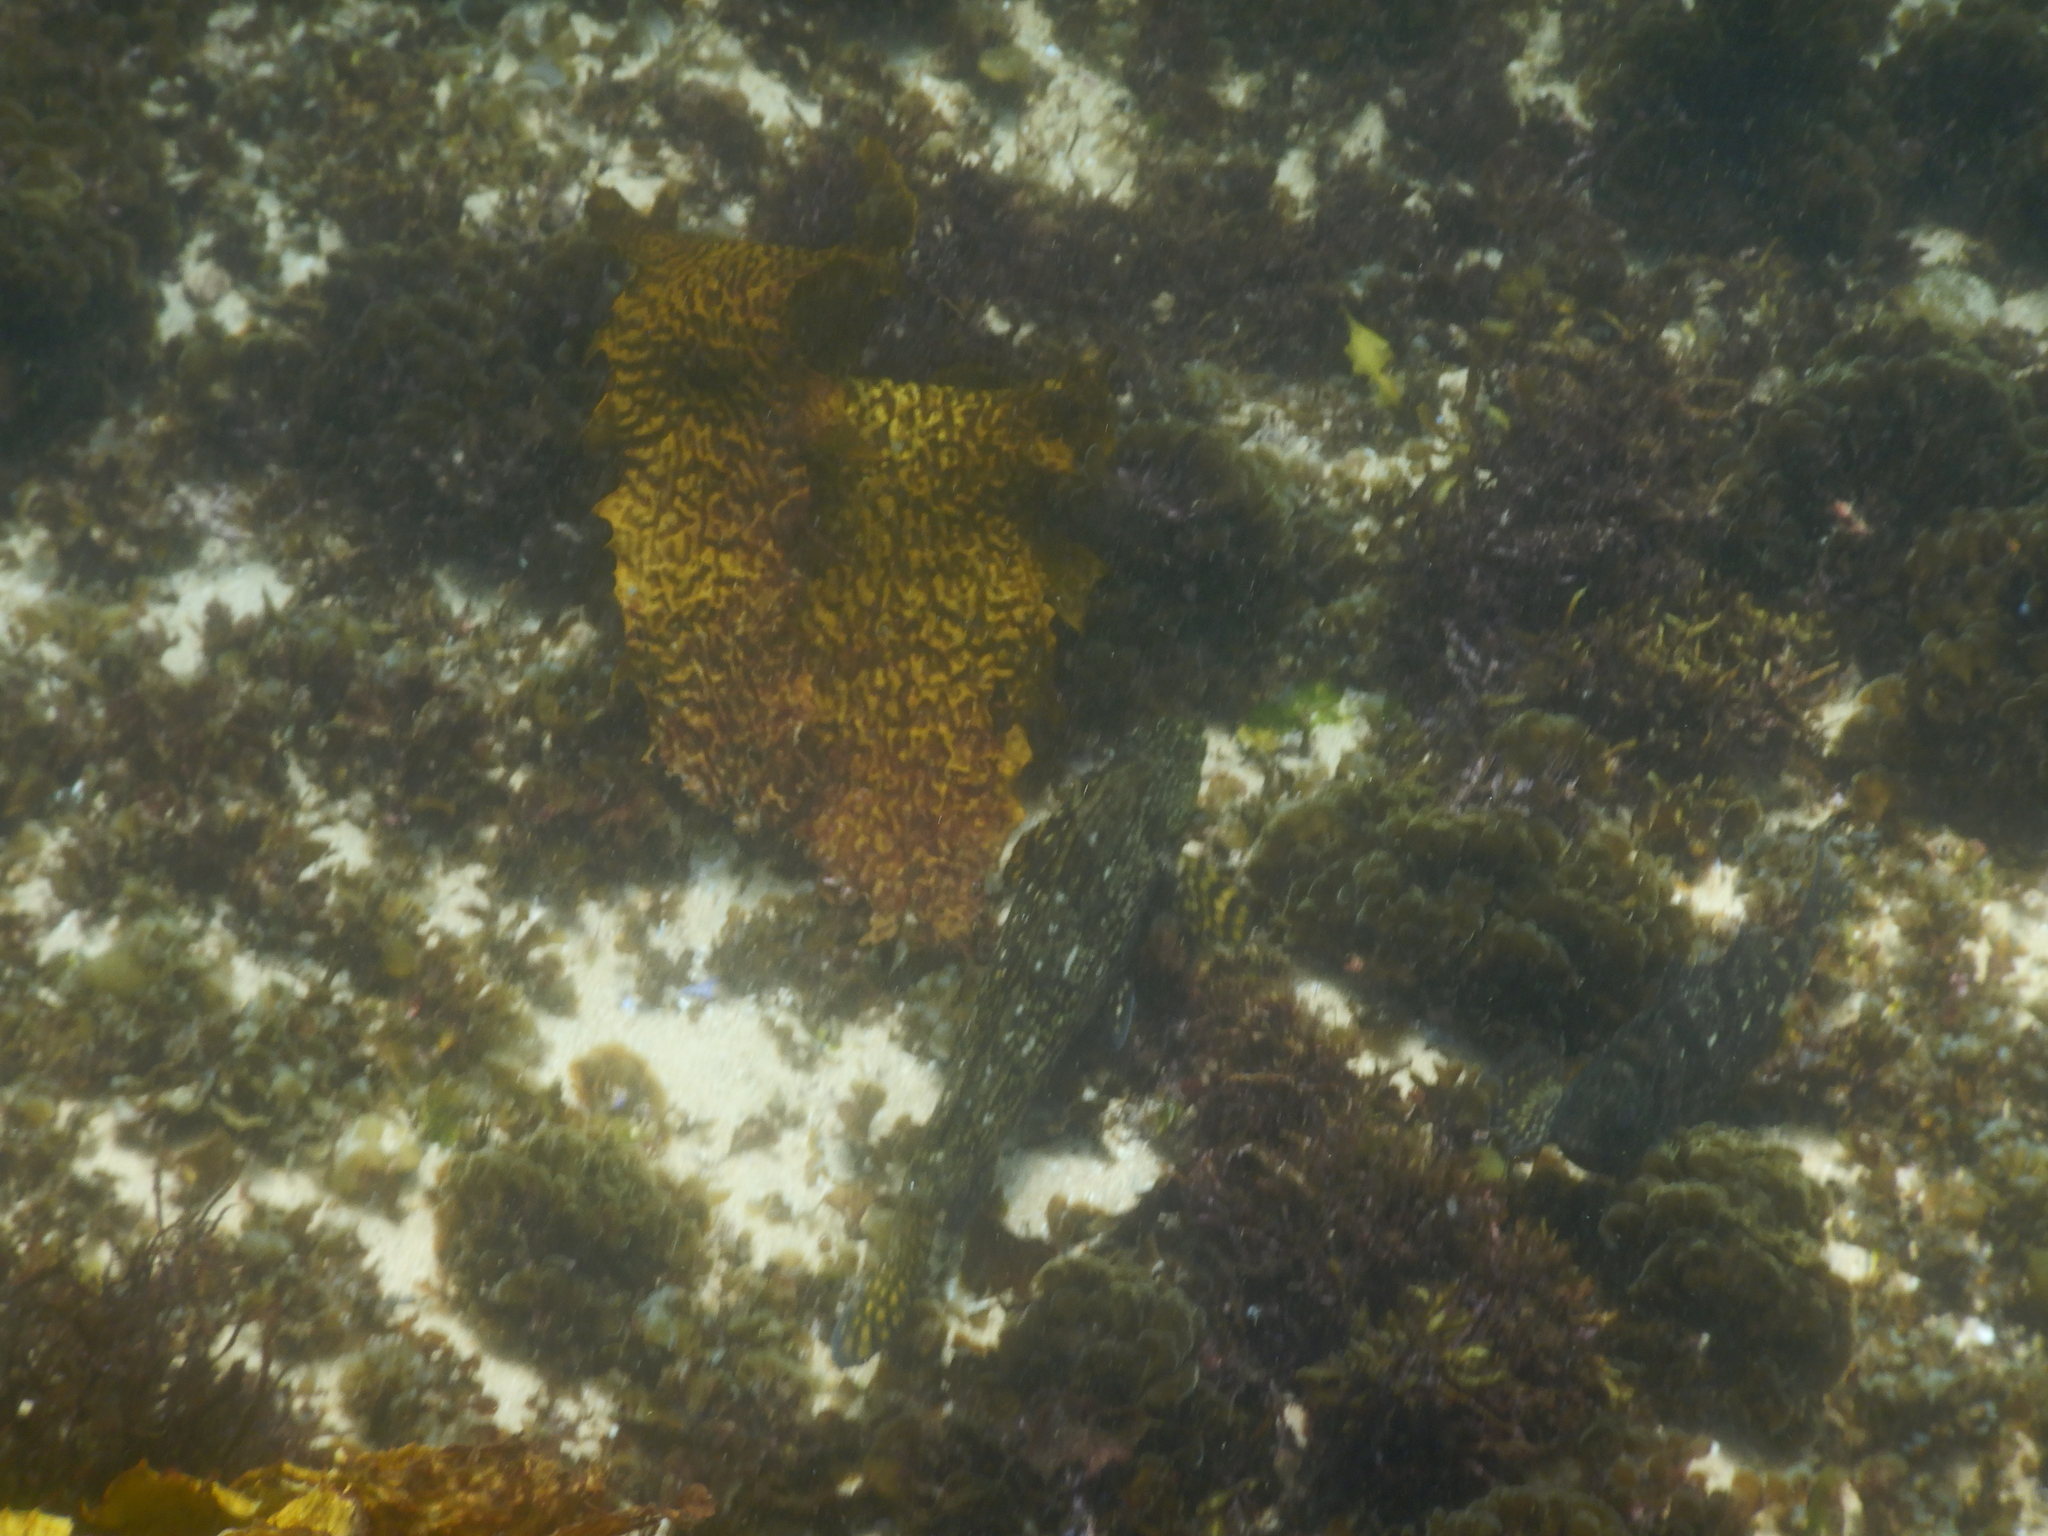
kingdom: Animalia
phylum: Chordata
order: Perciformes
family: Aplodactylidae
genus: Aplodactylus
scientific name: Aplodactylus lophodon
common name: Cockatoo fish
